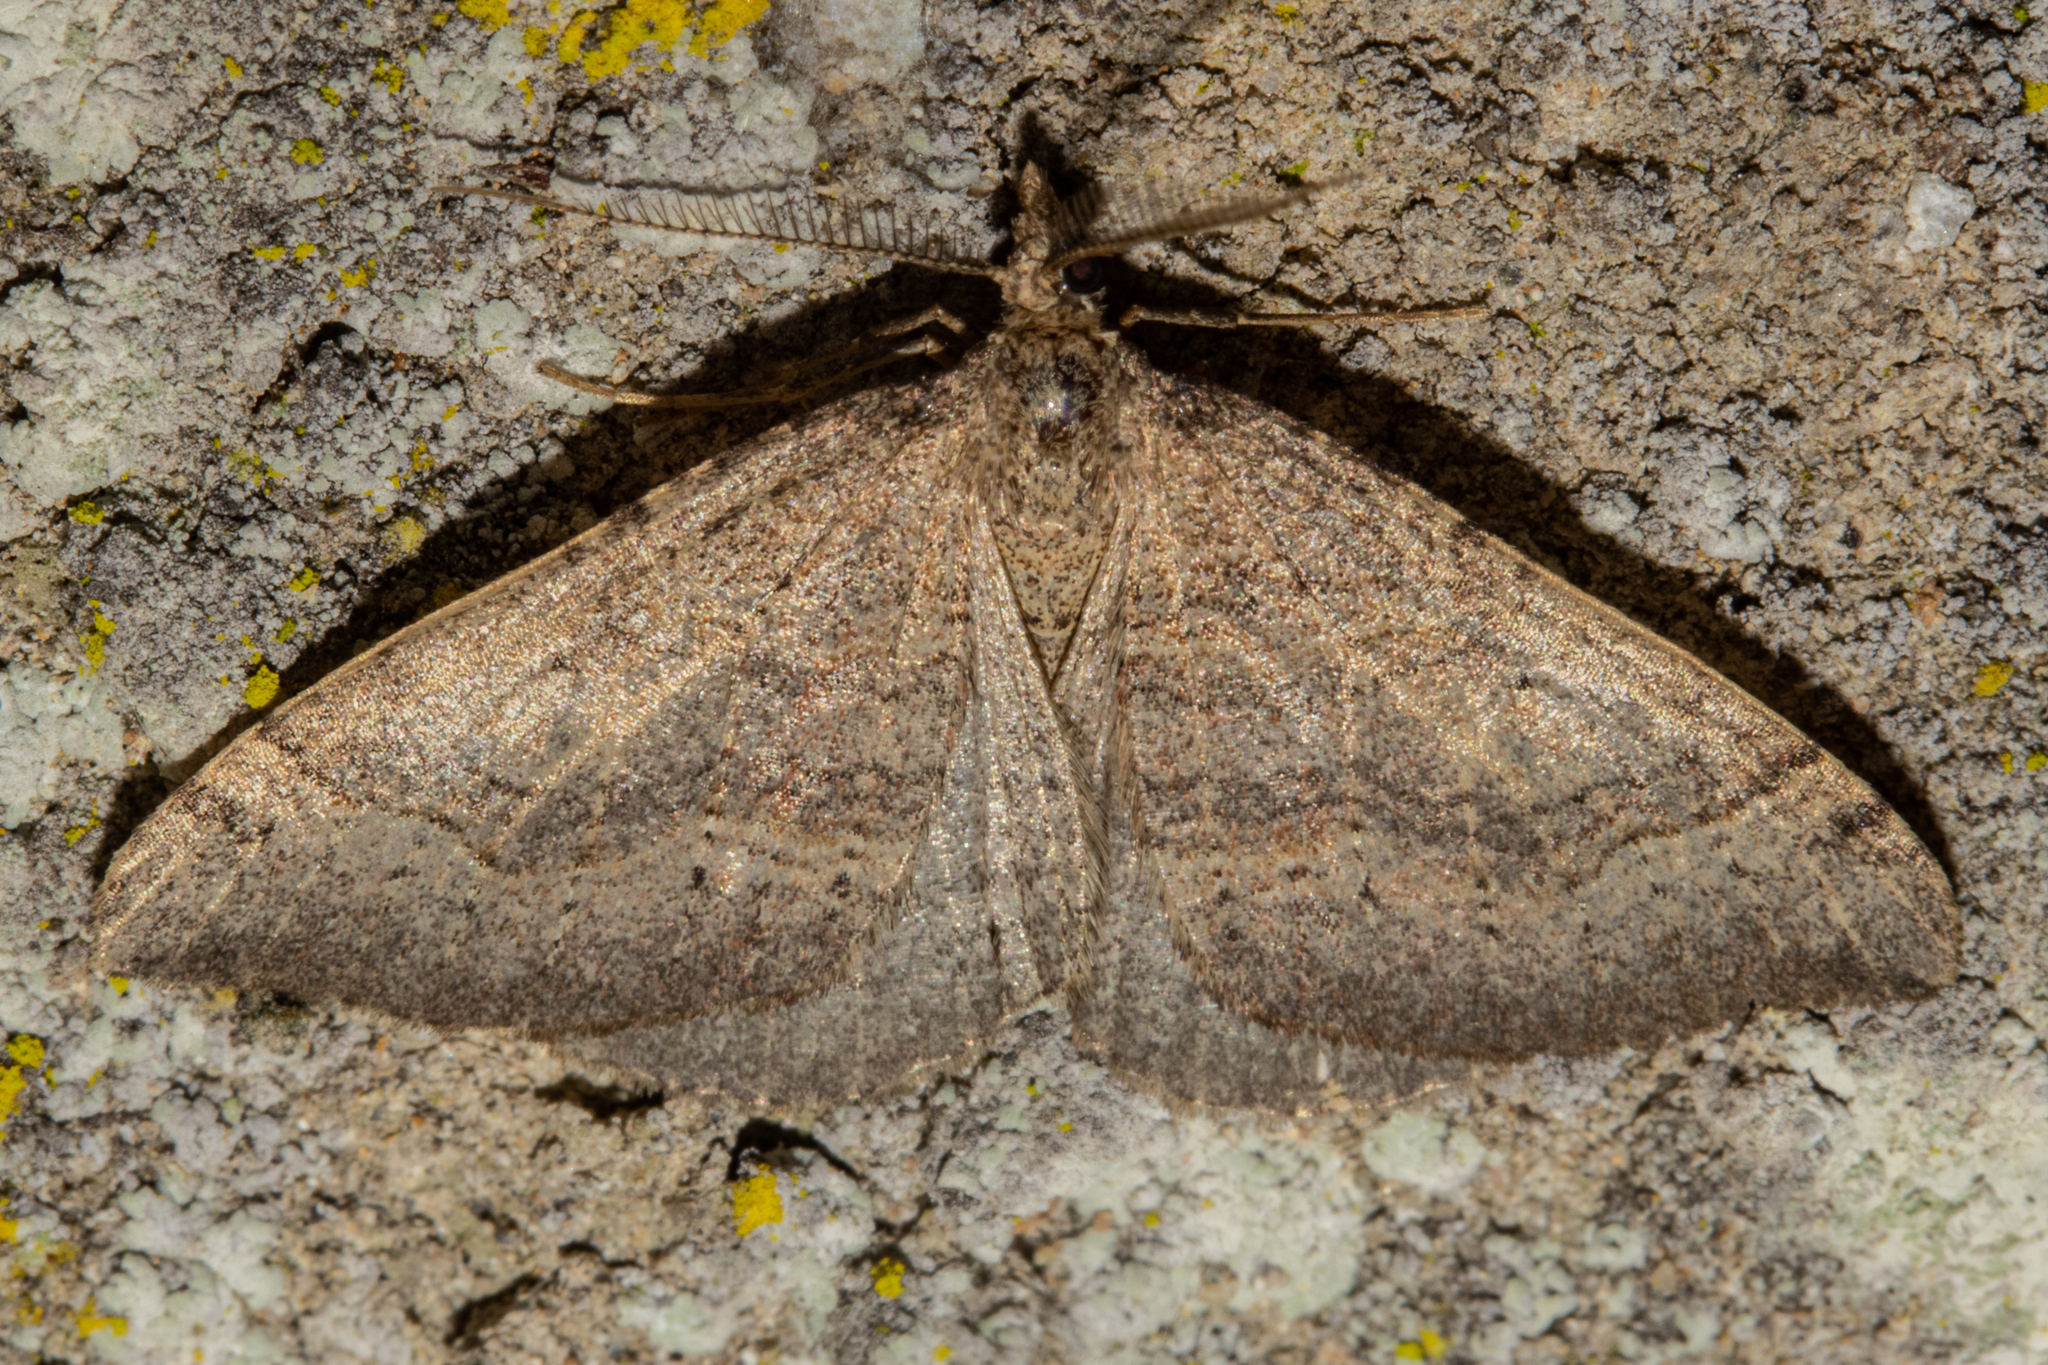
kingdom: Animalia
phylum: Arthropoda
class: Insecta
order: Lepidoptera
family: Geometridae
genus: Epyaxa
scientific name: Epyaxa rosearia
